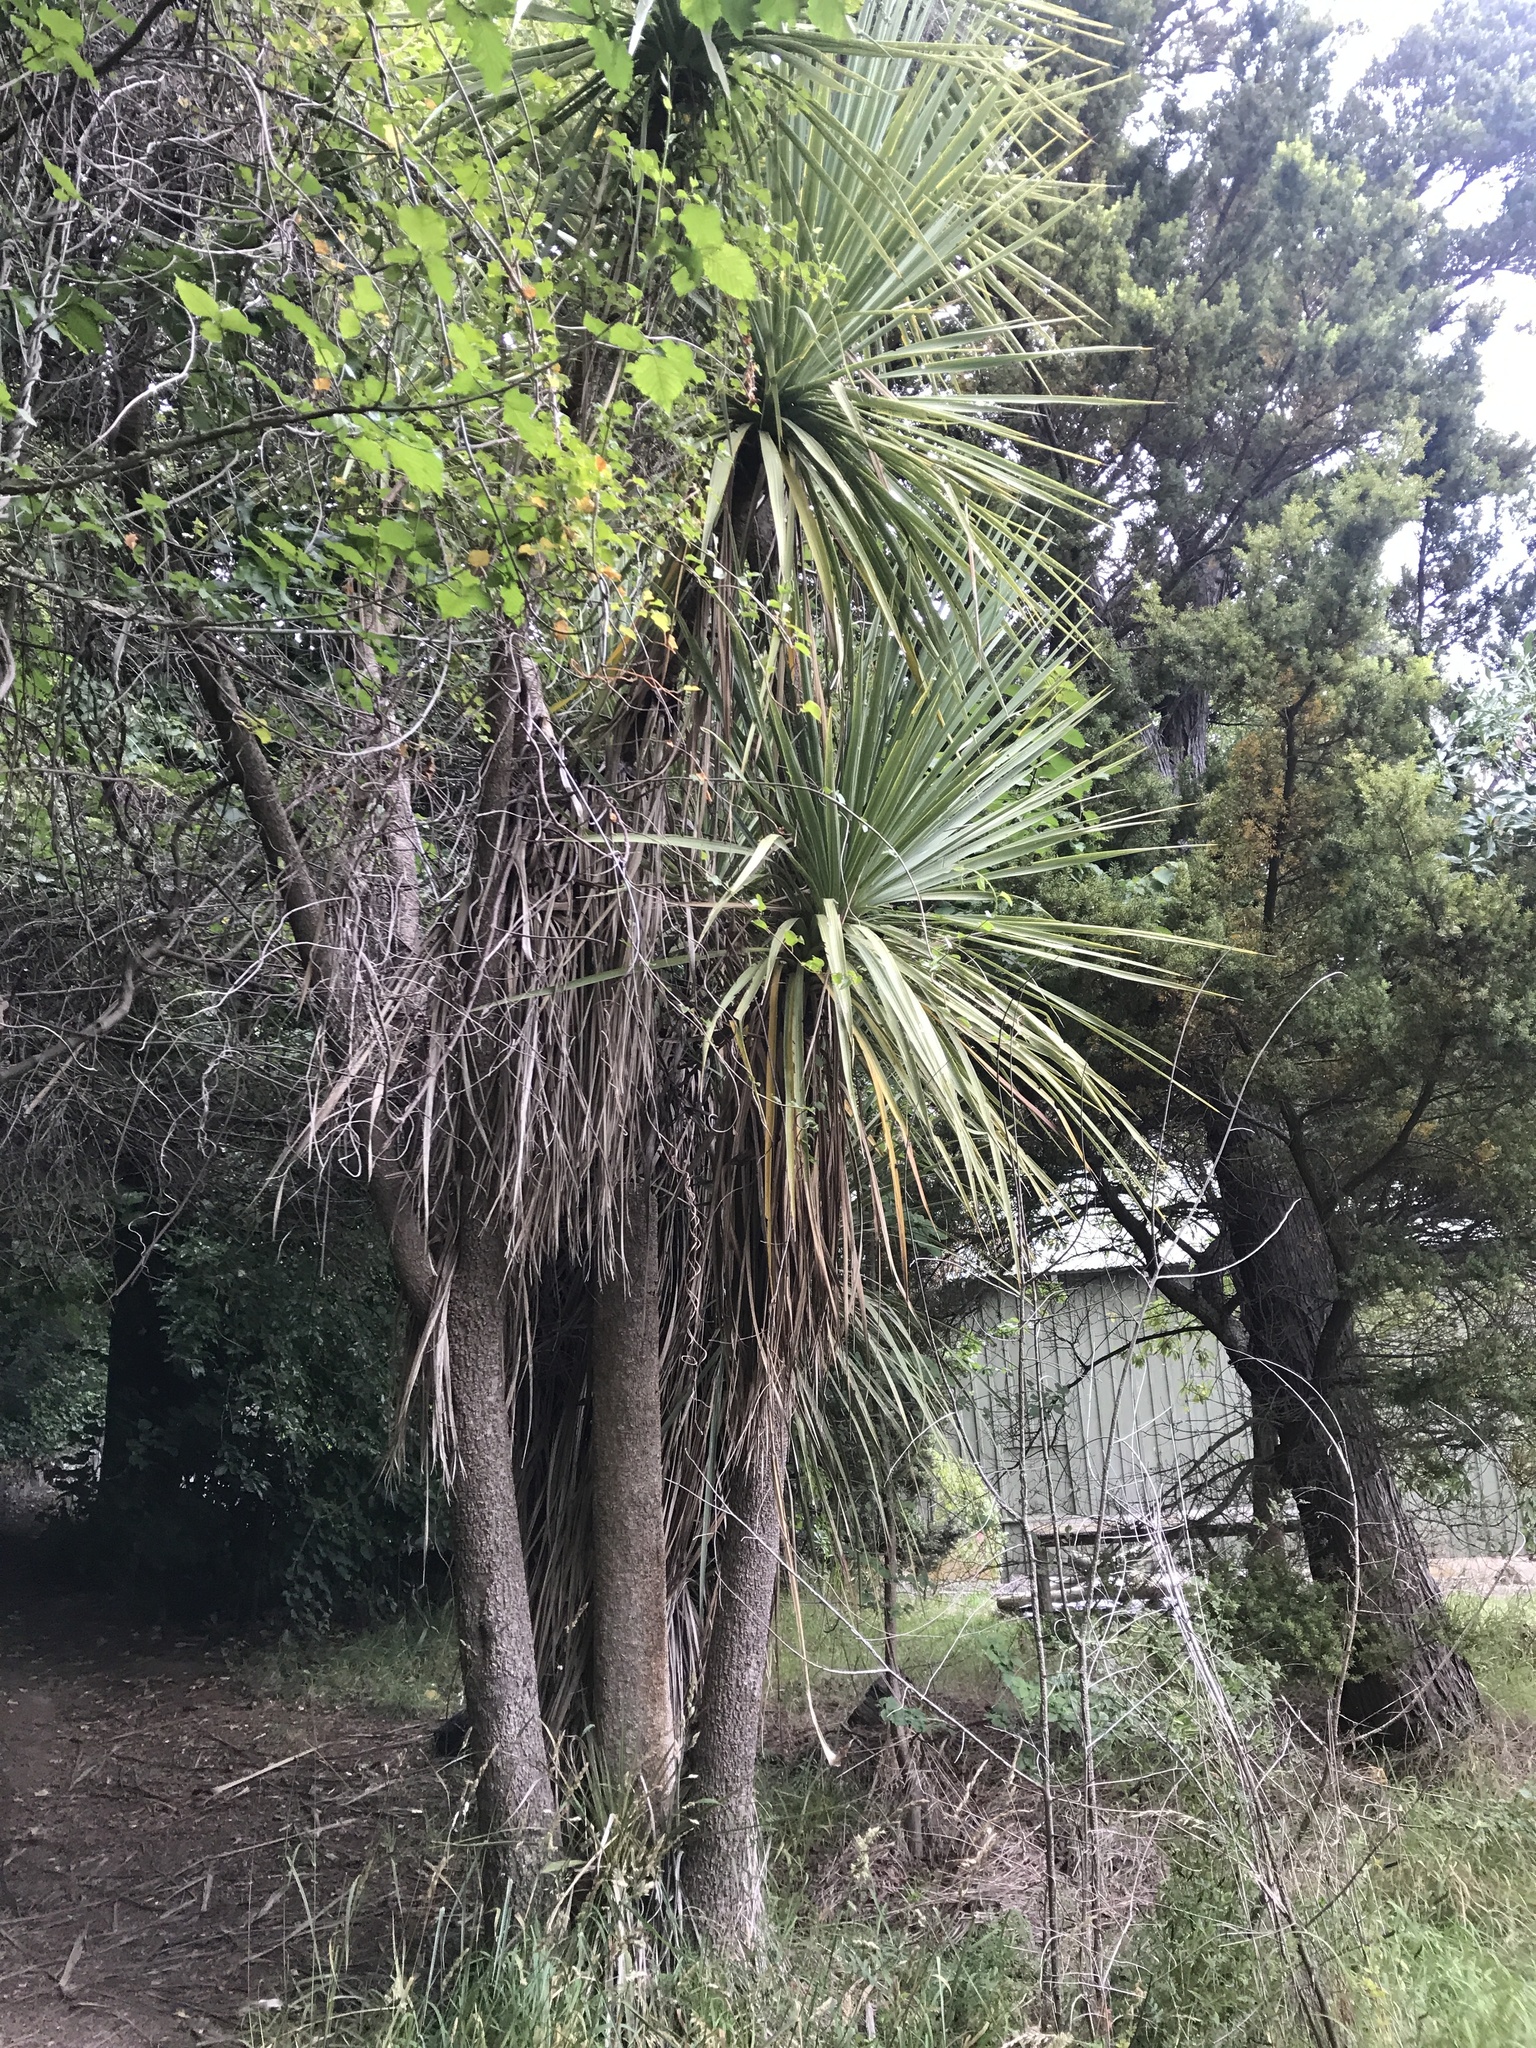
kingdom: Plantae
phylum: Tracheophyta
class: Liliopsida
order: Asparagales
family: Asparagaceae
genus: Cordyline
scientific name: Cordyline australis
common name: Cabbage-palm
